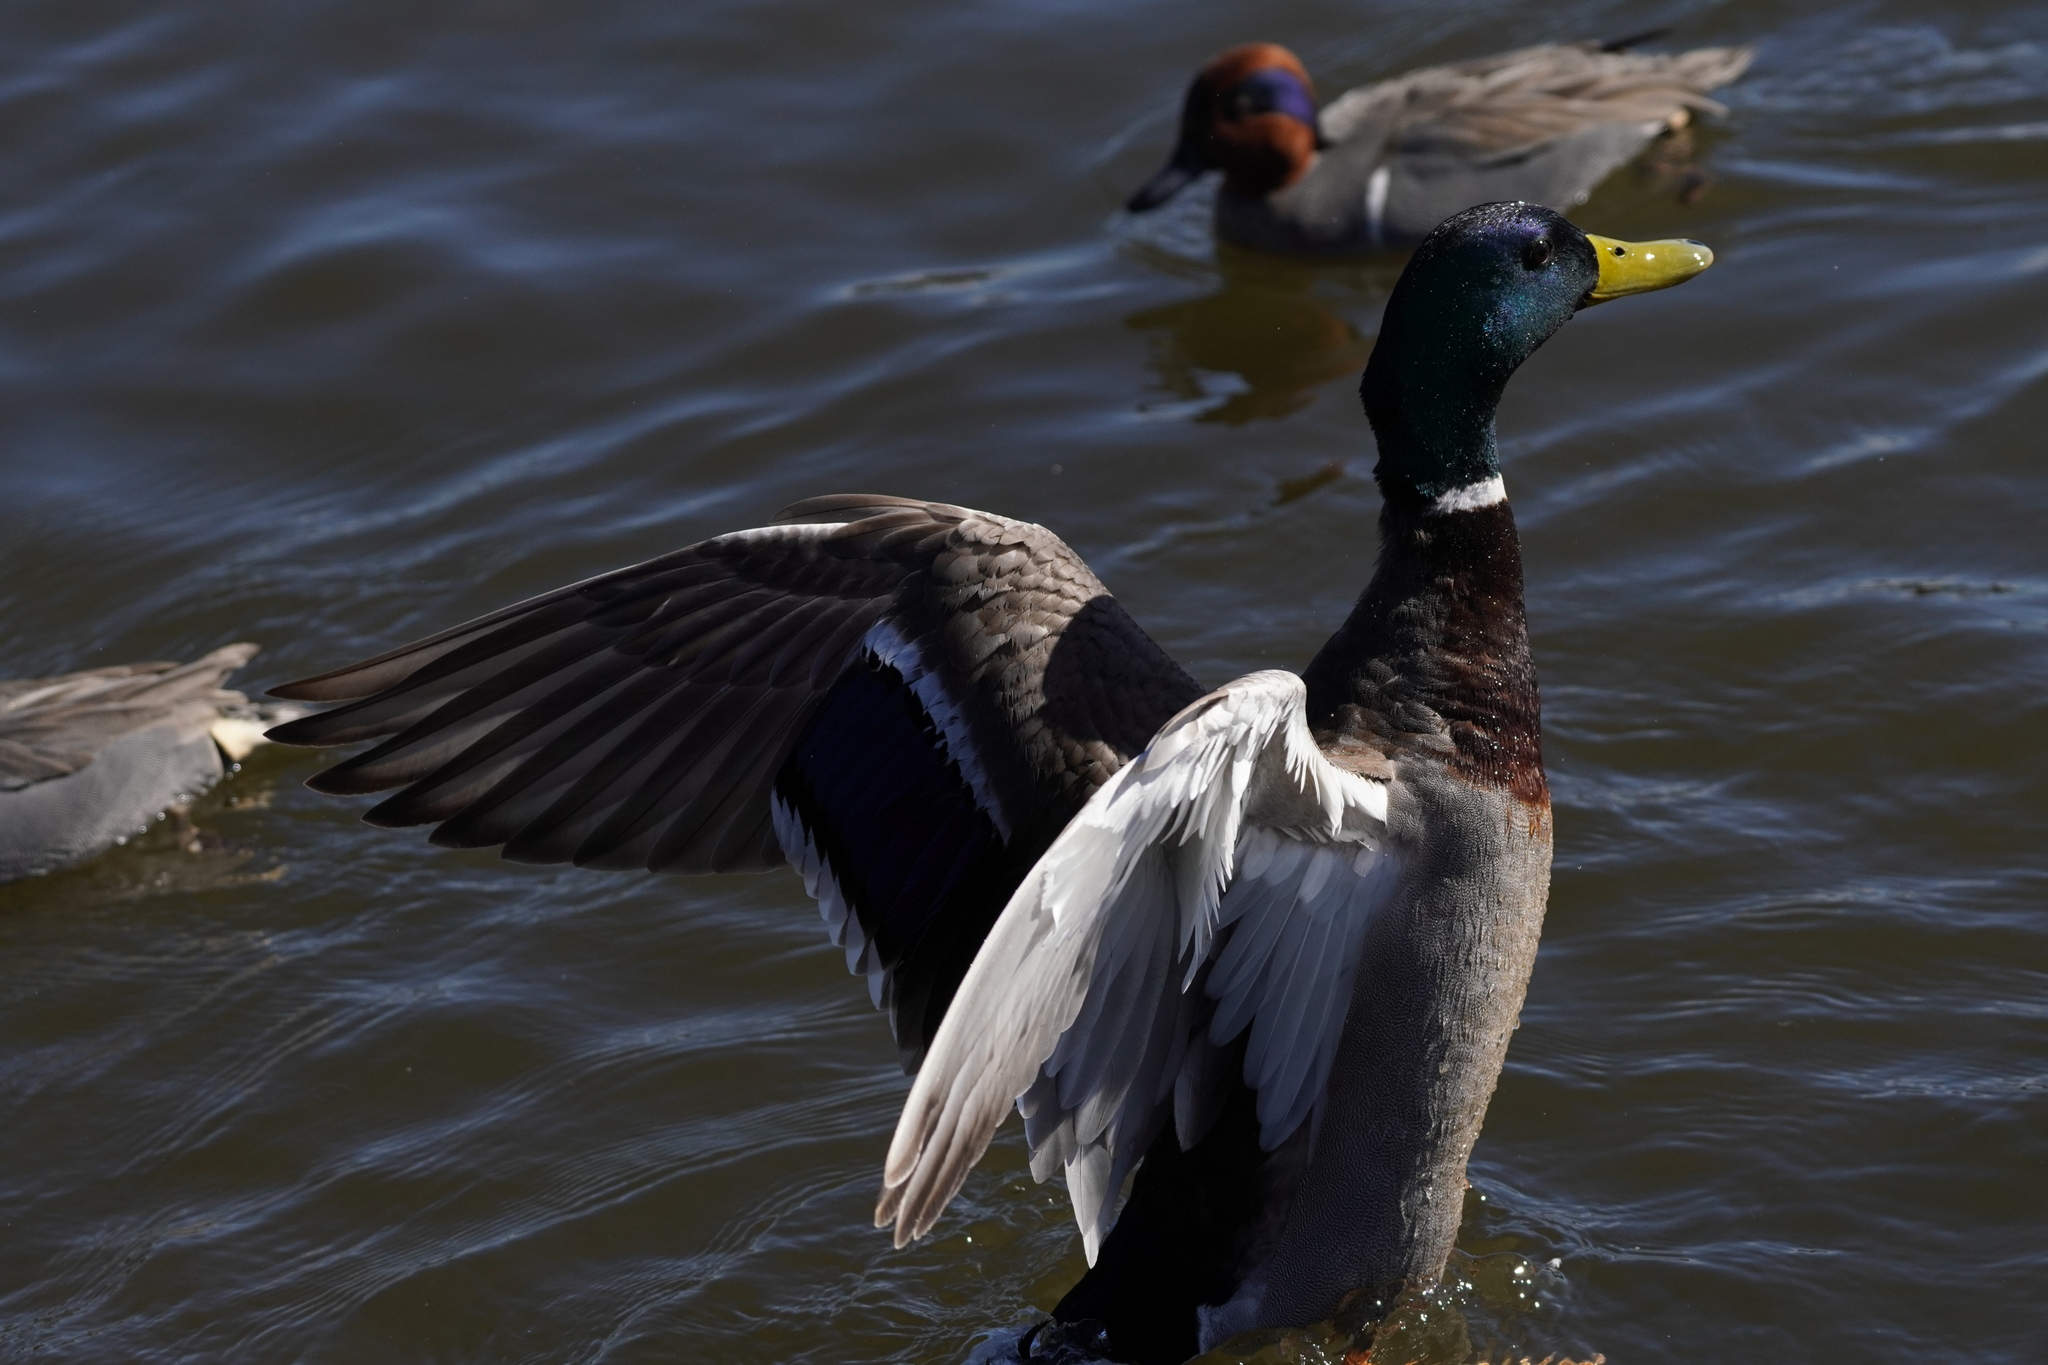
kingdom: Animalia
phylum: Chordata
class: Aves
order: Anseriformes
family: Anatidae
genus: Anas
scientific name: Anas platyrhynchos
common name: Mallard
